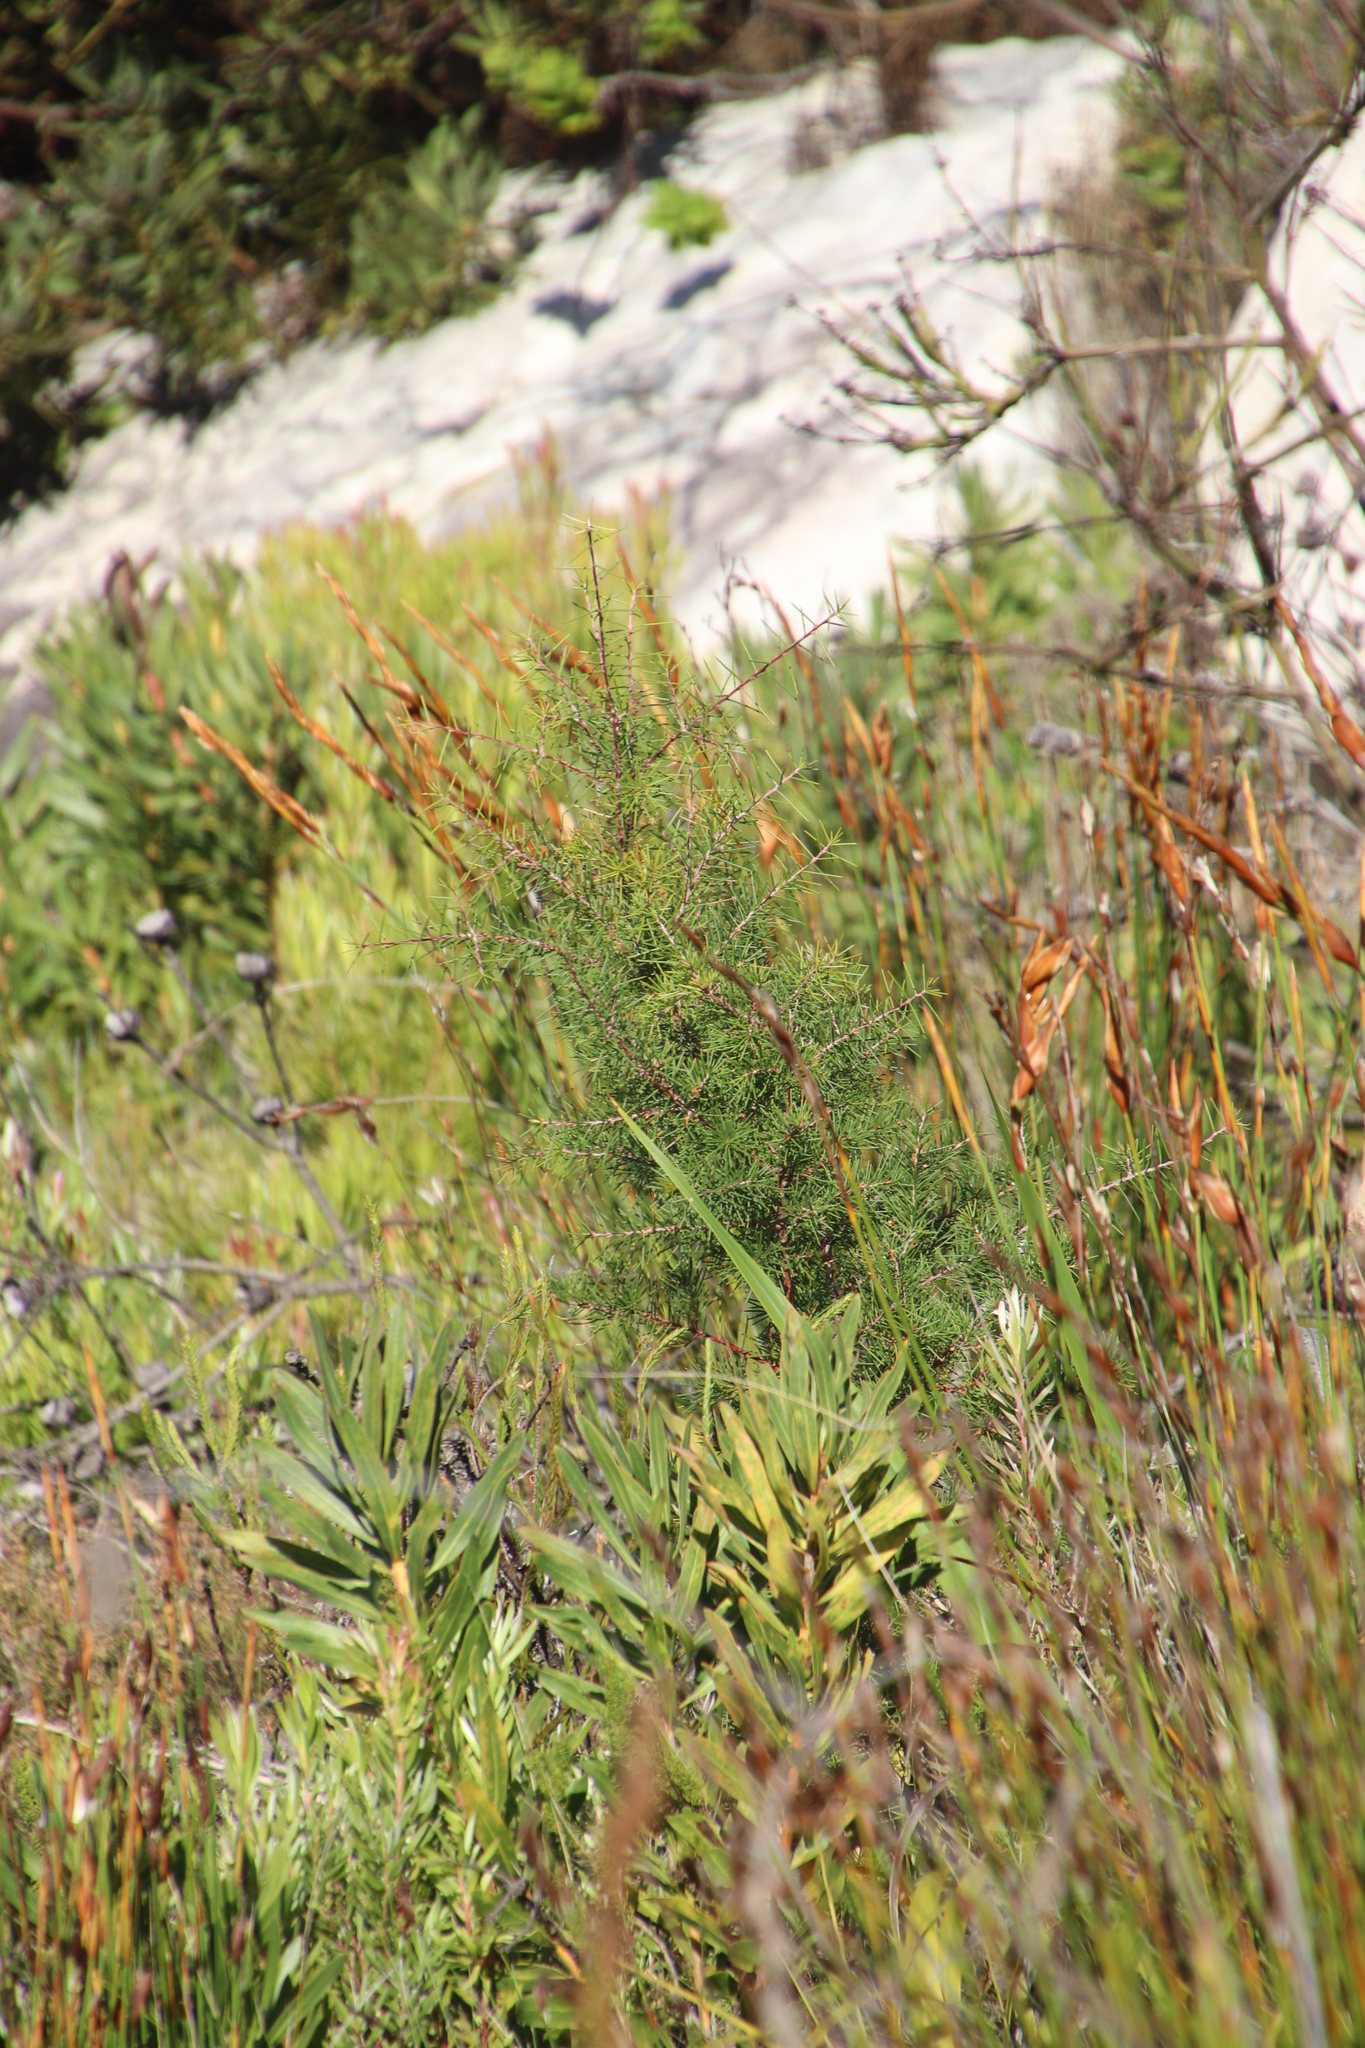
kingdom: Plantae
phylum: Tracheophyta
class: Magnoliopsida
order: Proteales
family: Proteaceae
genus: Hakea
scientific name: Hakea sericea
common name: Needle bush
